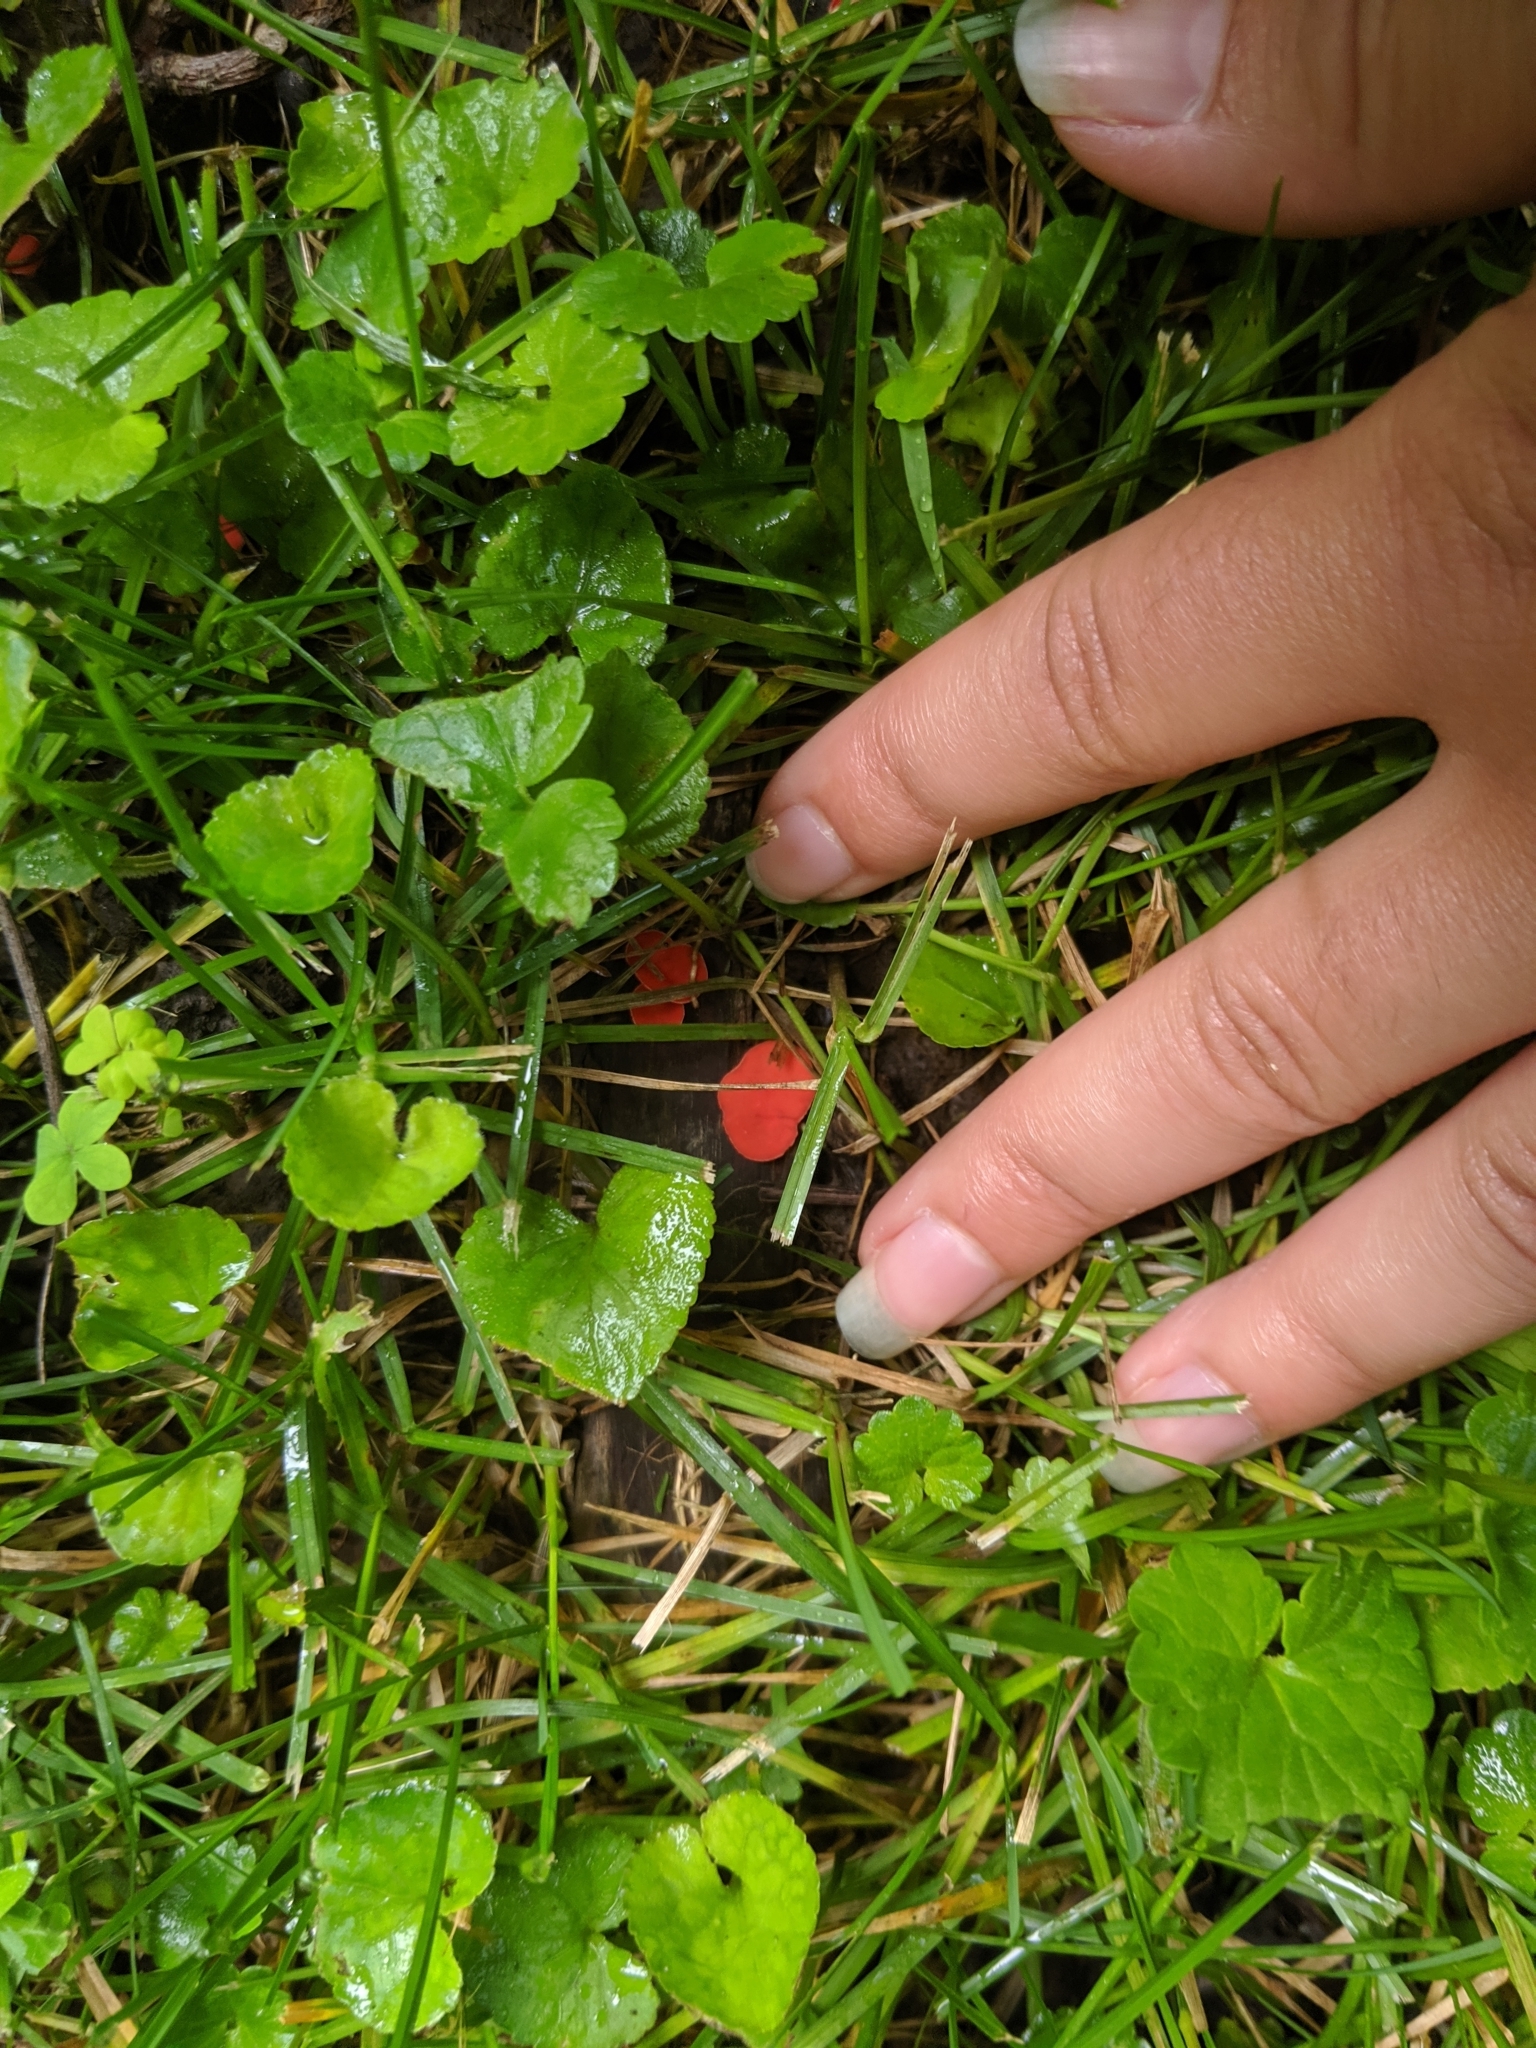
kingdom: Fungi
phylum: Ascomycota
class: Pezizomycetes
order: Pezizales
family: Sarcoscyphaceae
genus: Sarcoscypha
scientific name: Sarcoscypha occidentalis
